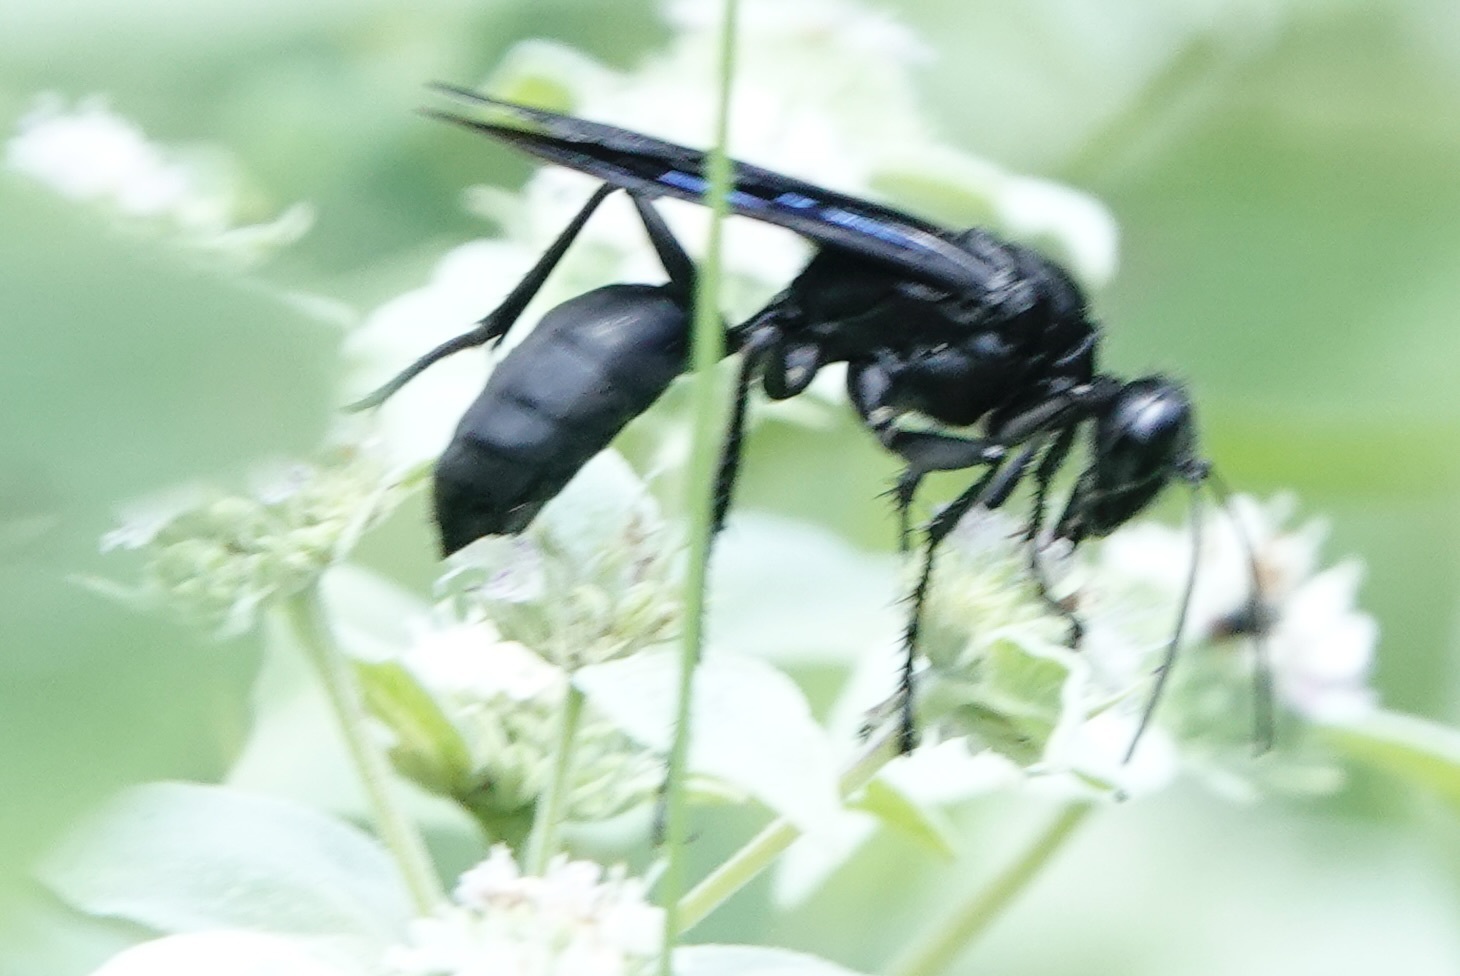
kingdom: Animalia
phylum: Arthropoda
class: Insecta
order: Hymenoptera
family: Sphecidae
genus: Sphex
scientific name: Sphex pensylvanicus
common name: Great black digger wasp
